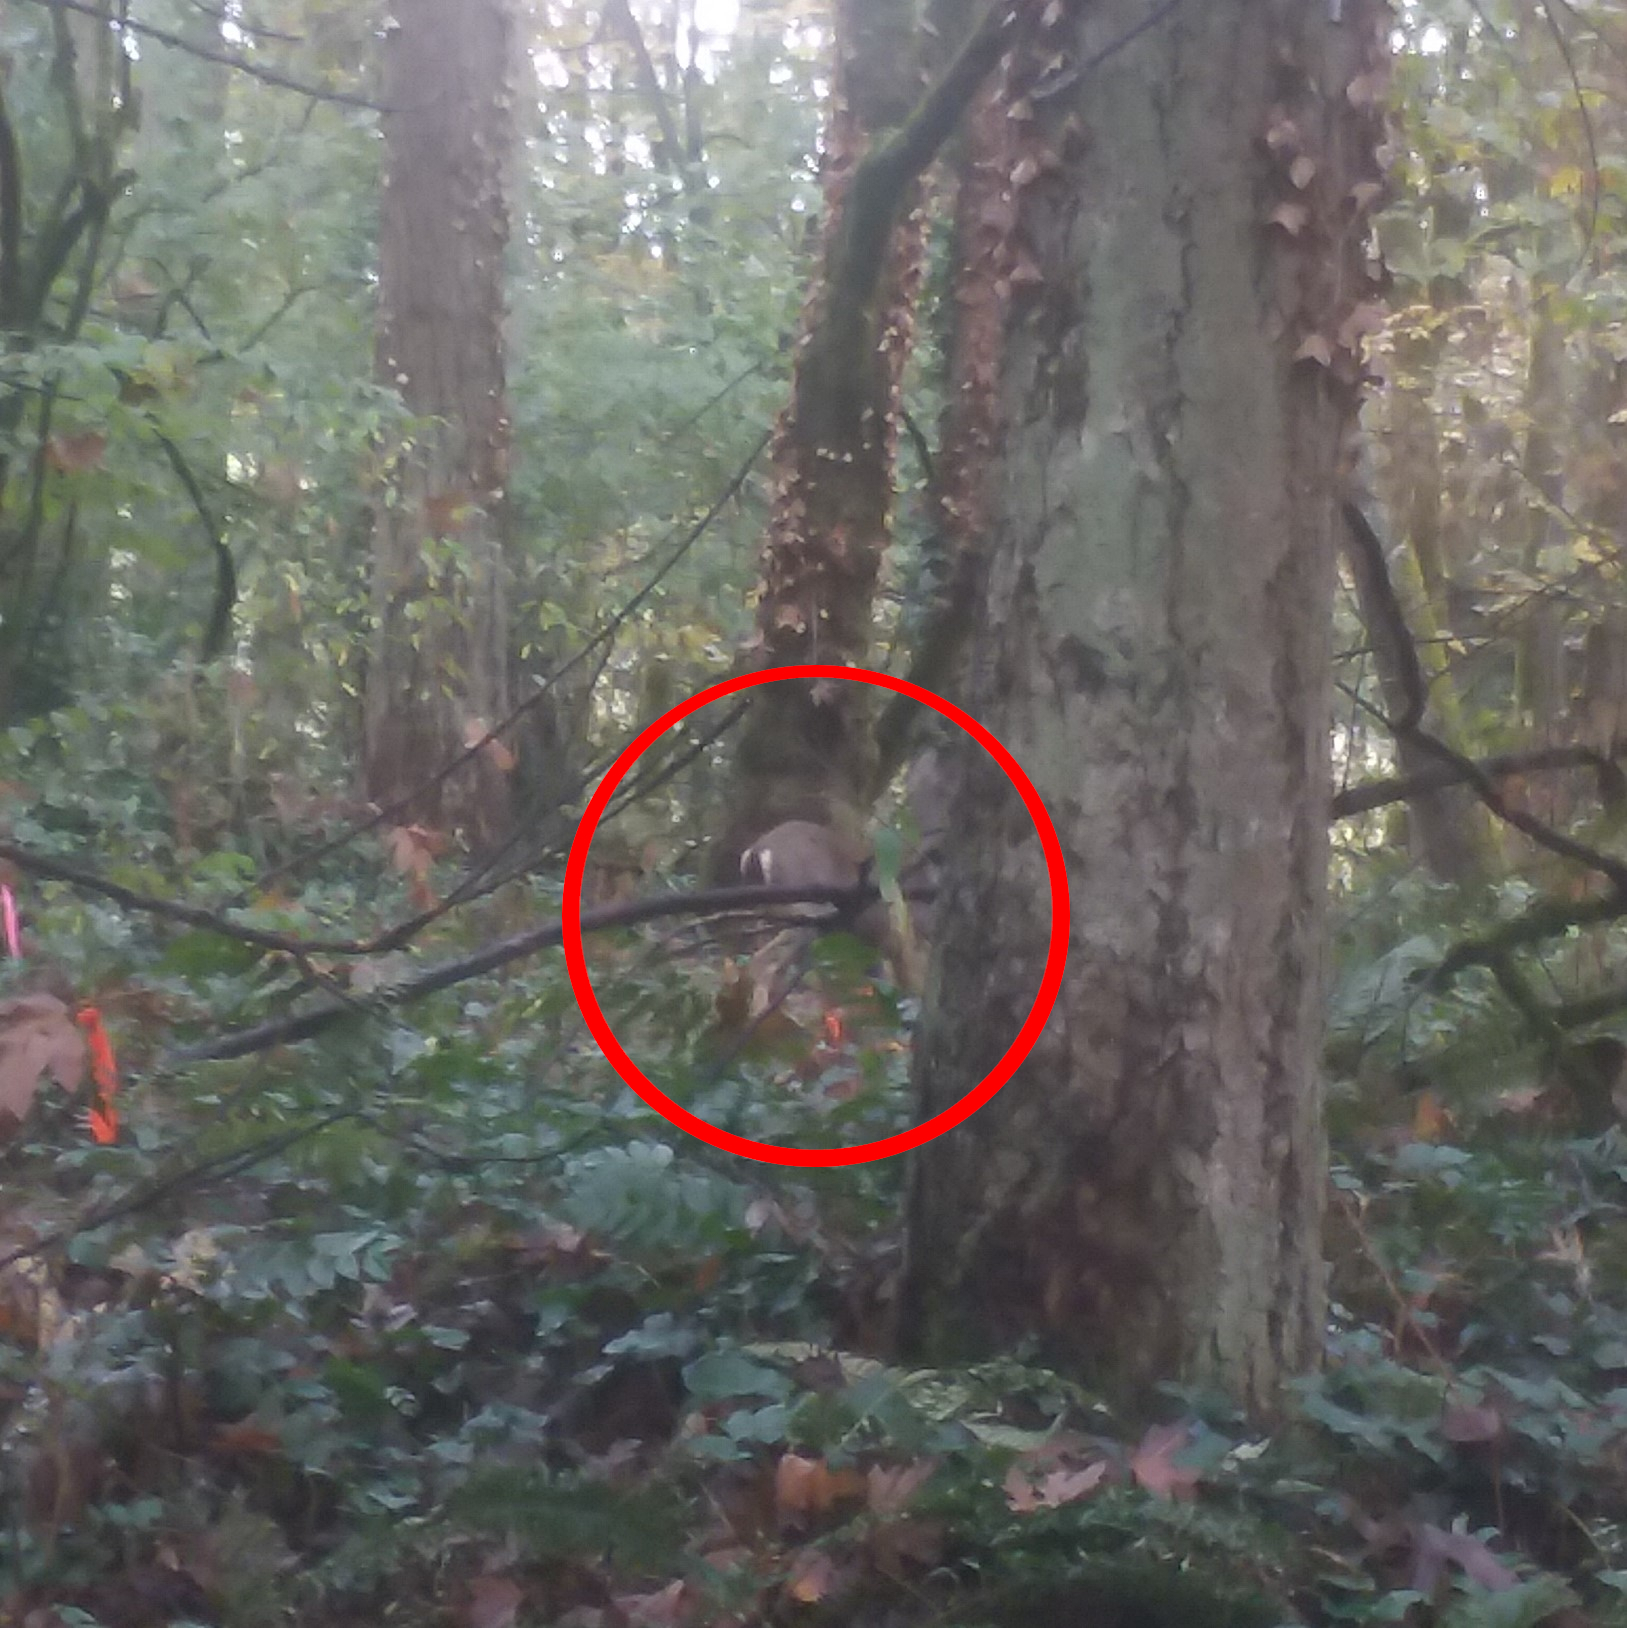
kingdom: Animalia
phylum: Chordata
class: Mammalia
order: Artiodactyla
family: Cervidae
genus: Odocoileus
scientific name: Odocoileus hemionus
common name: Mule deer
